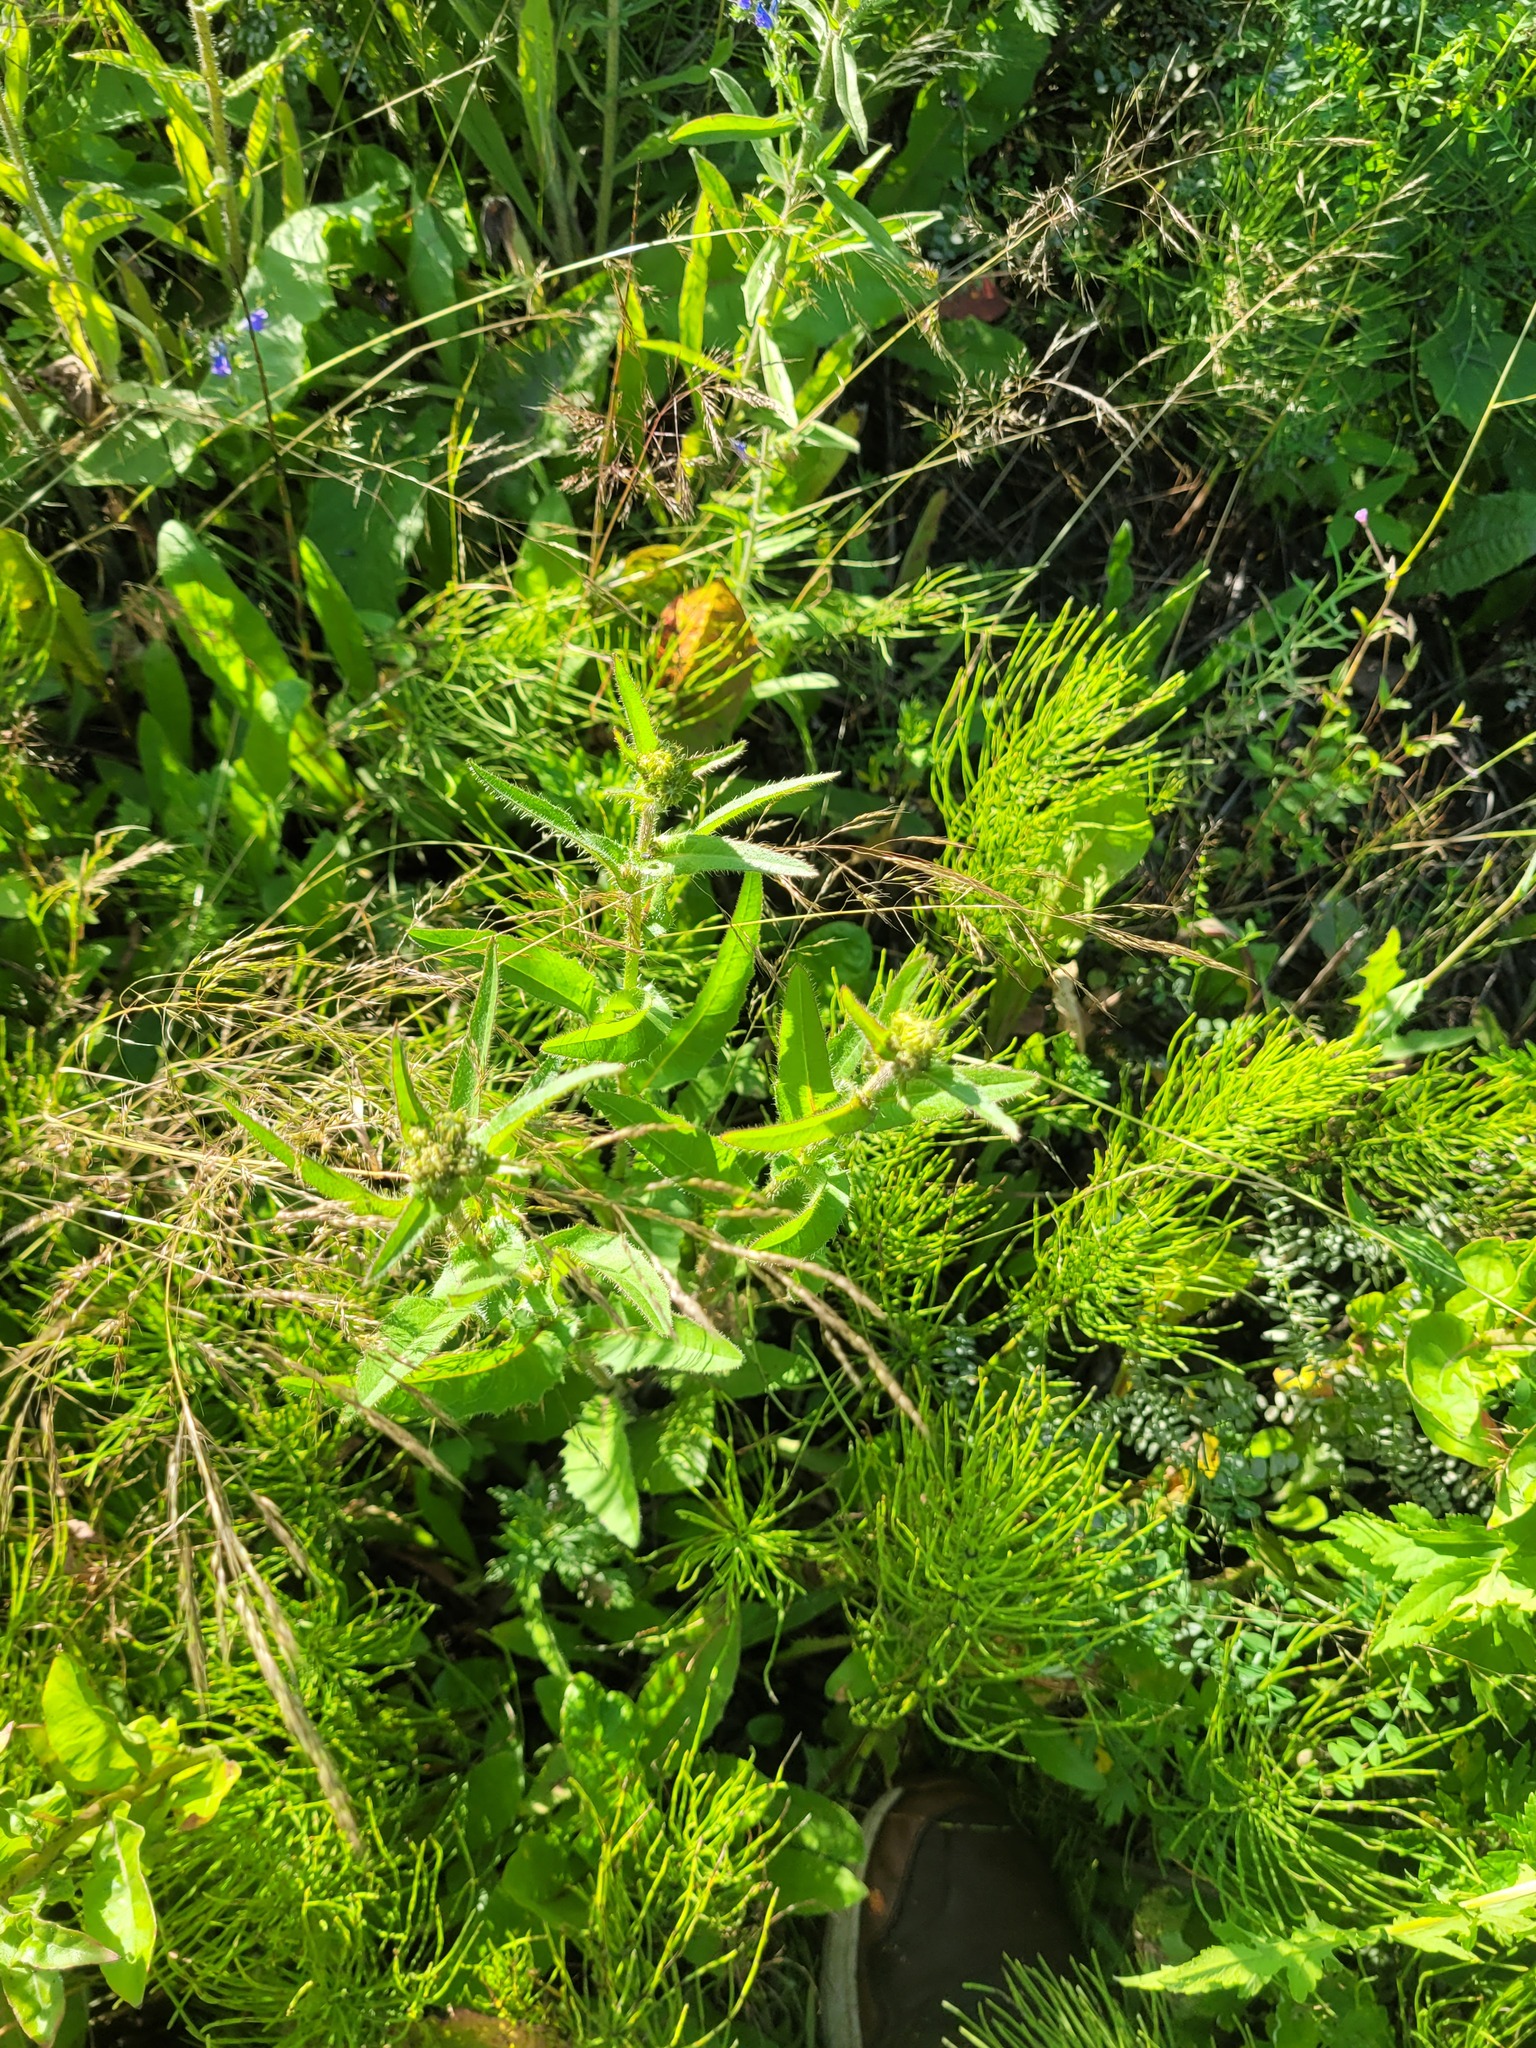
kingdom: Plantae
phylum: Tracheophyta
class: Magnoliopsida
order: Asterales
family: Asteraceae
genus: Picris
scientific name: Picris hieracioides
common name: Hawkweed oxtongue
